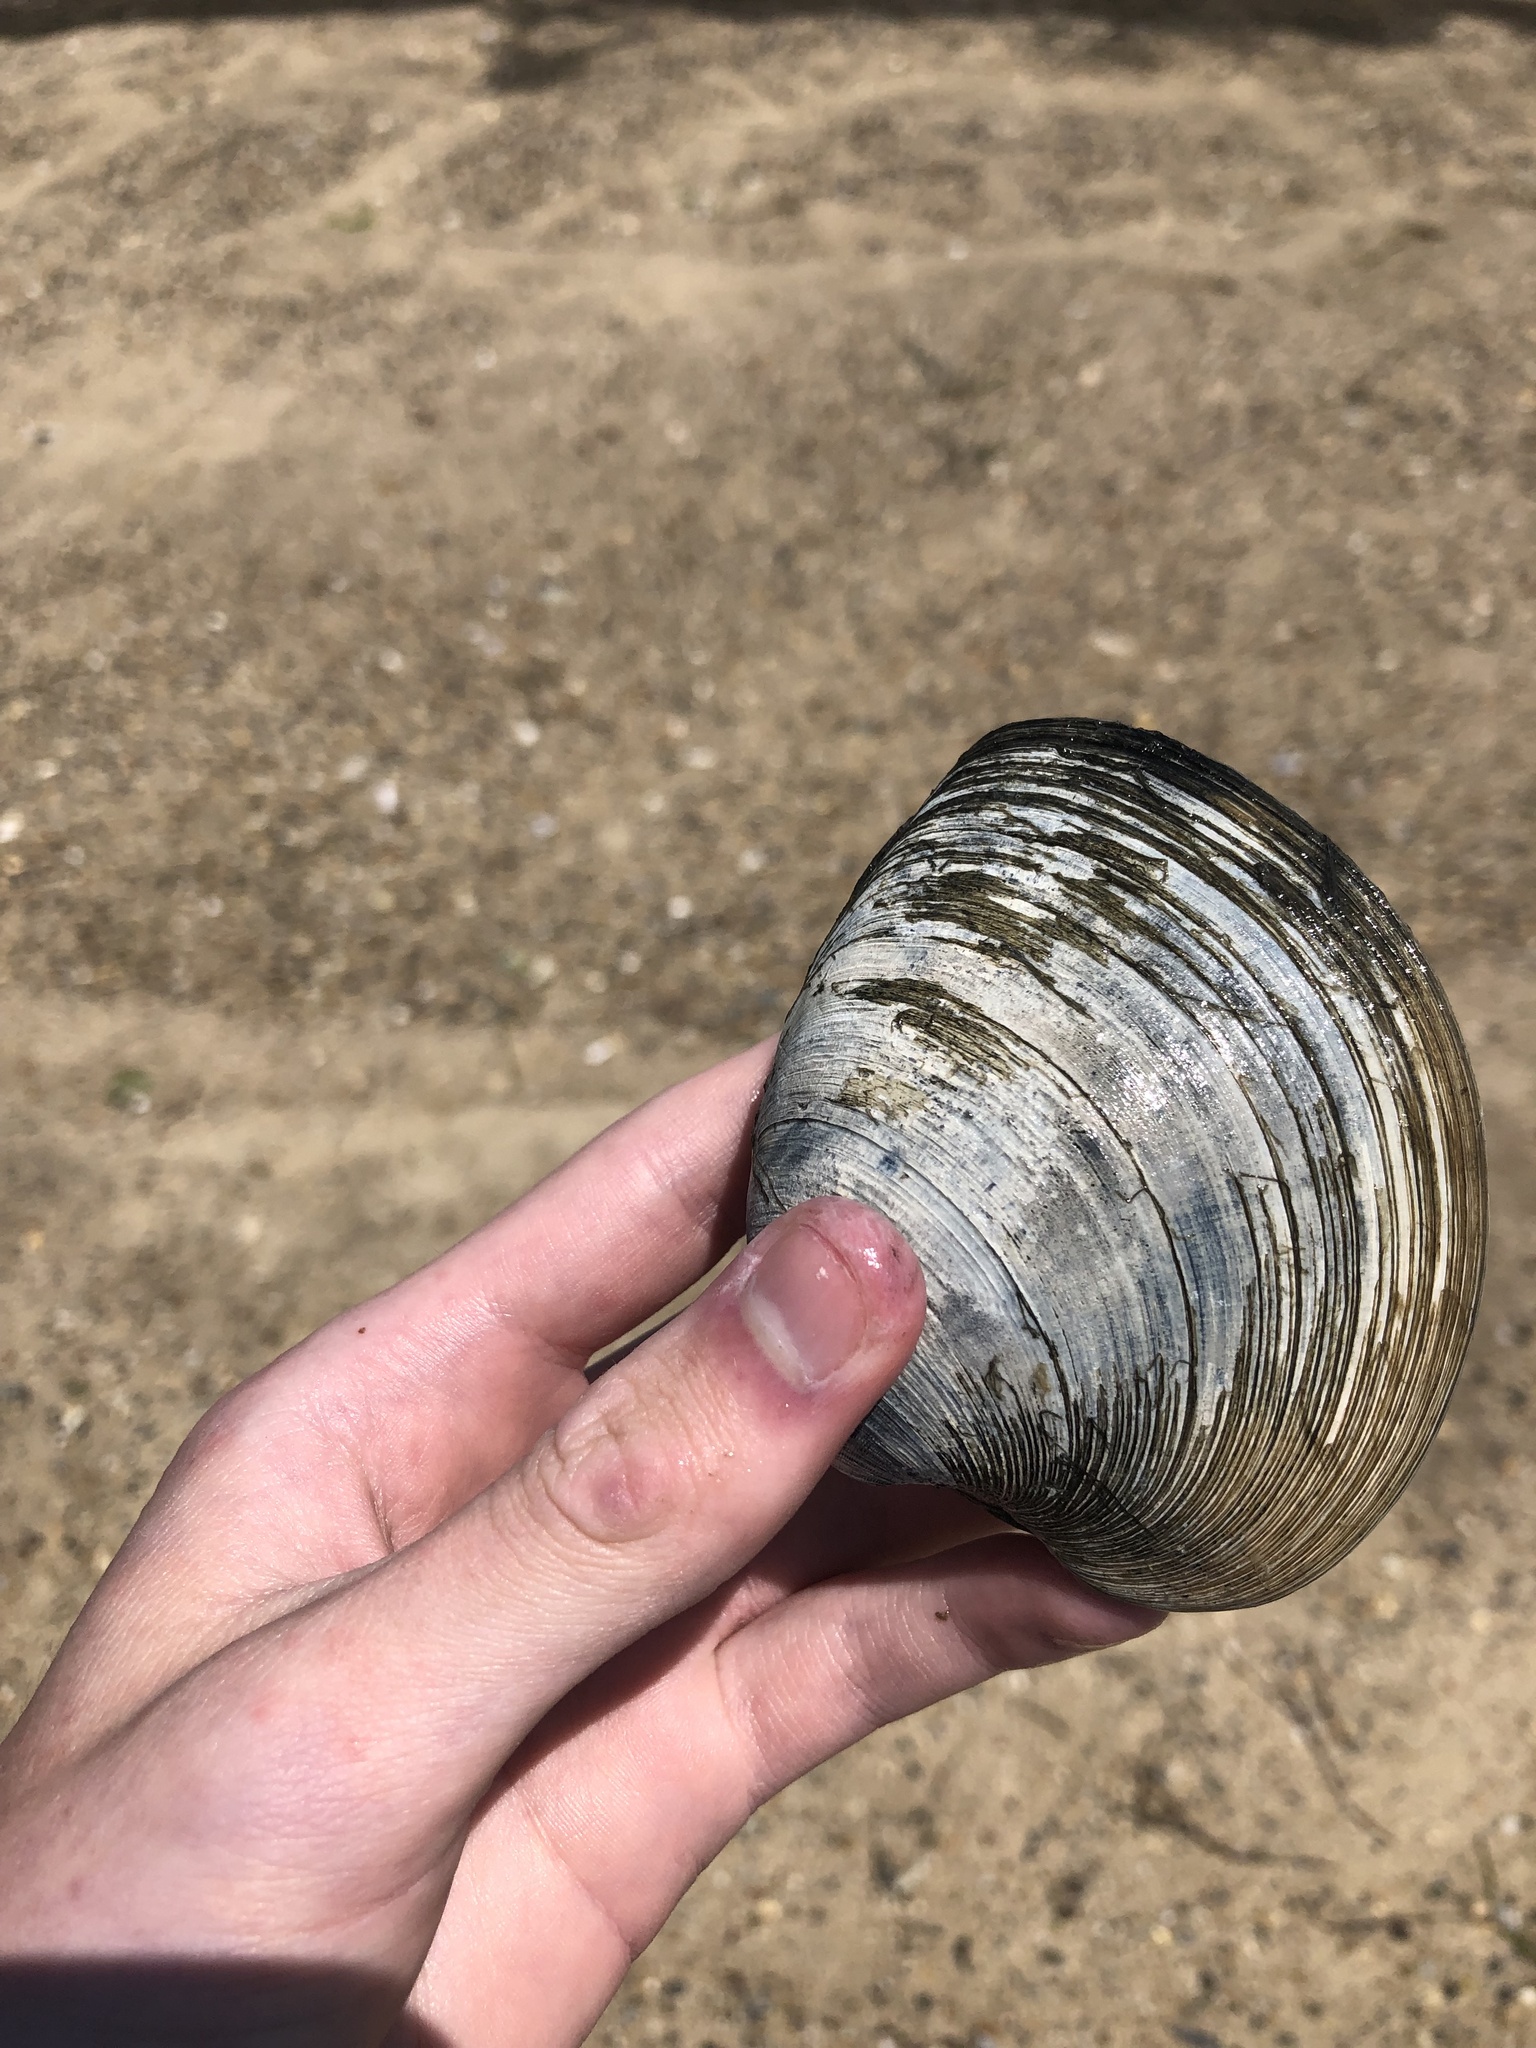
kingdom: Animalia
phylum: Mollusca
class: Bivalvia
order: Venerida
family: Veneridae
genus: Mercenaria
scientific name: Mercenaria mercenaria
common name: American hard-shelled clam
